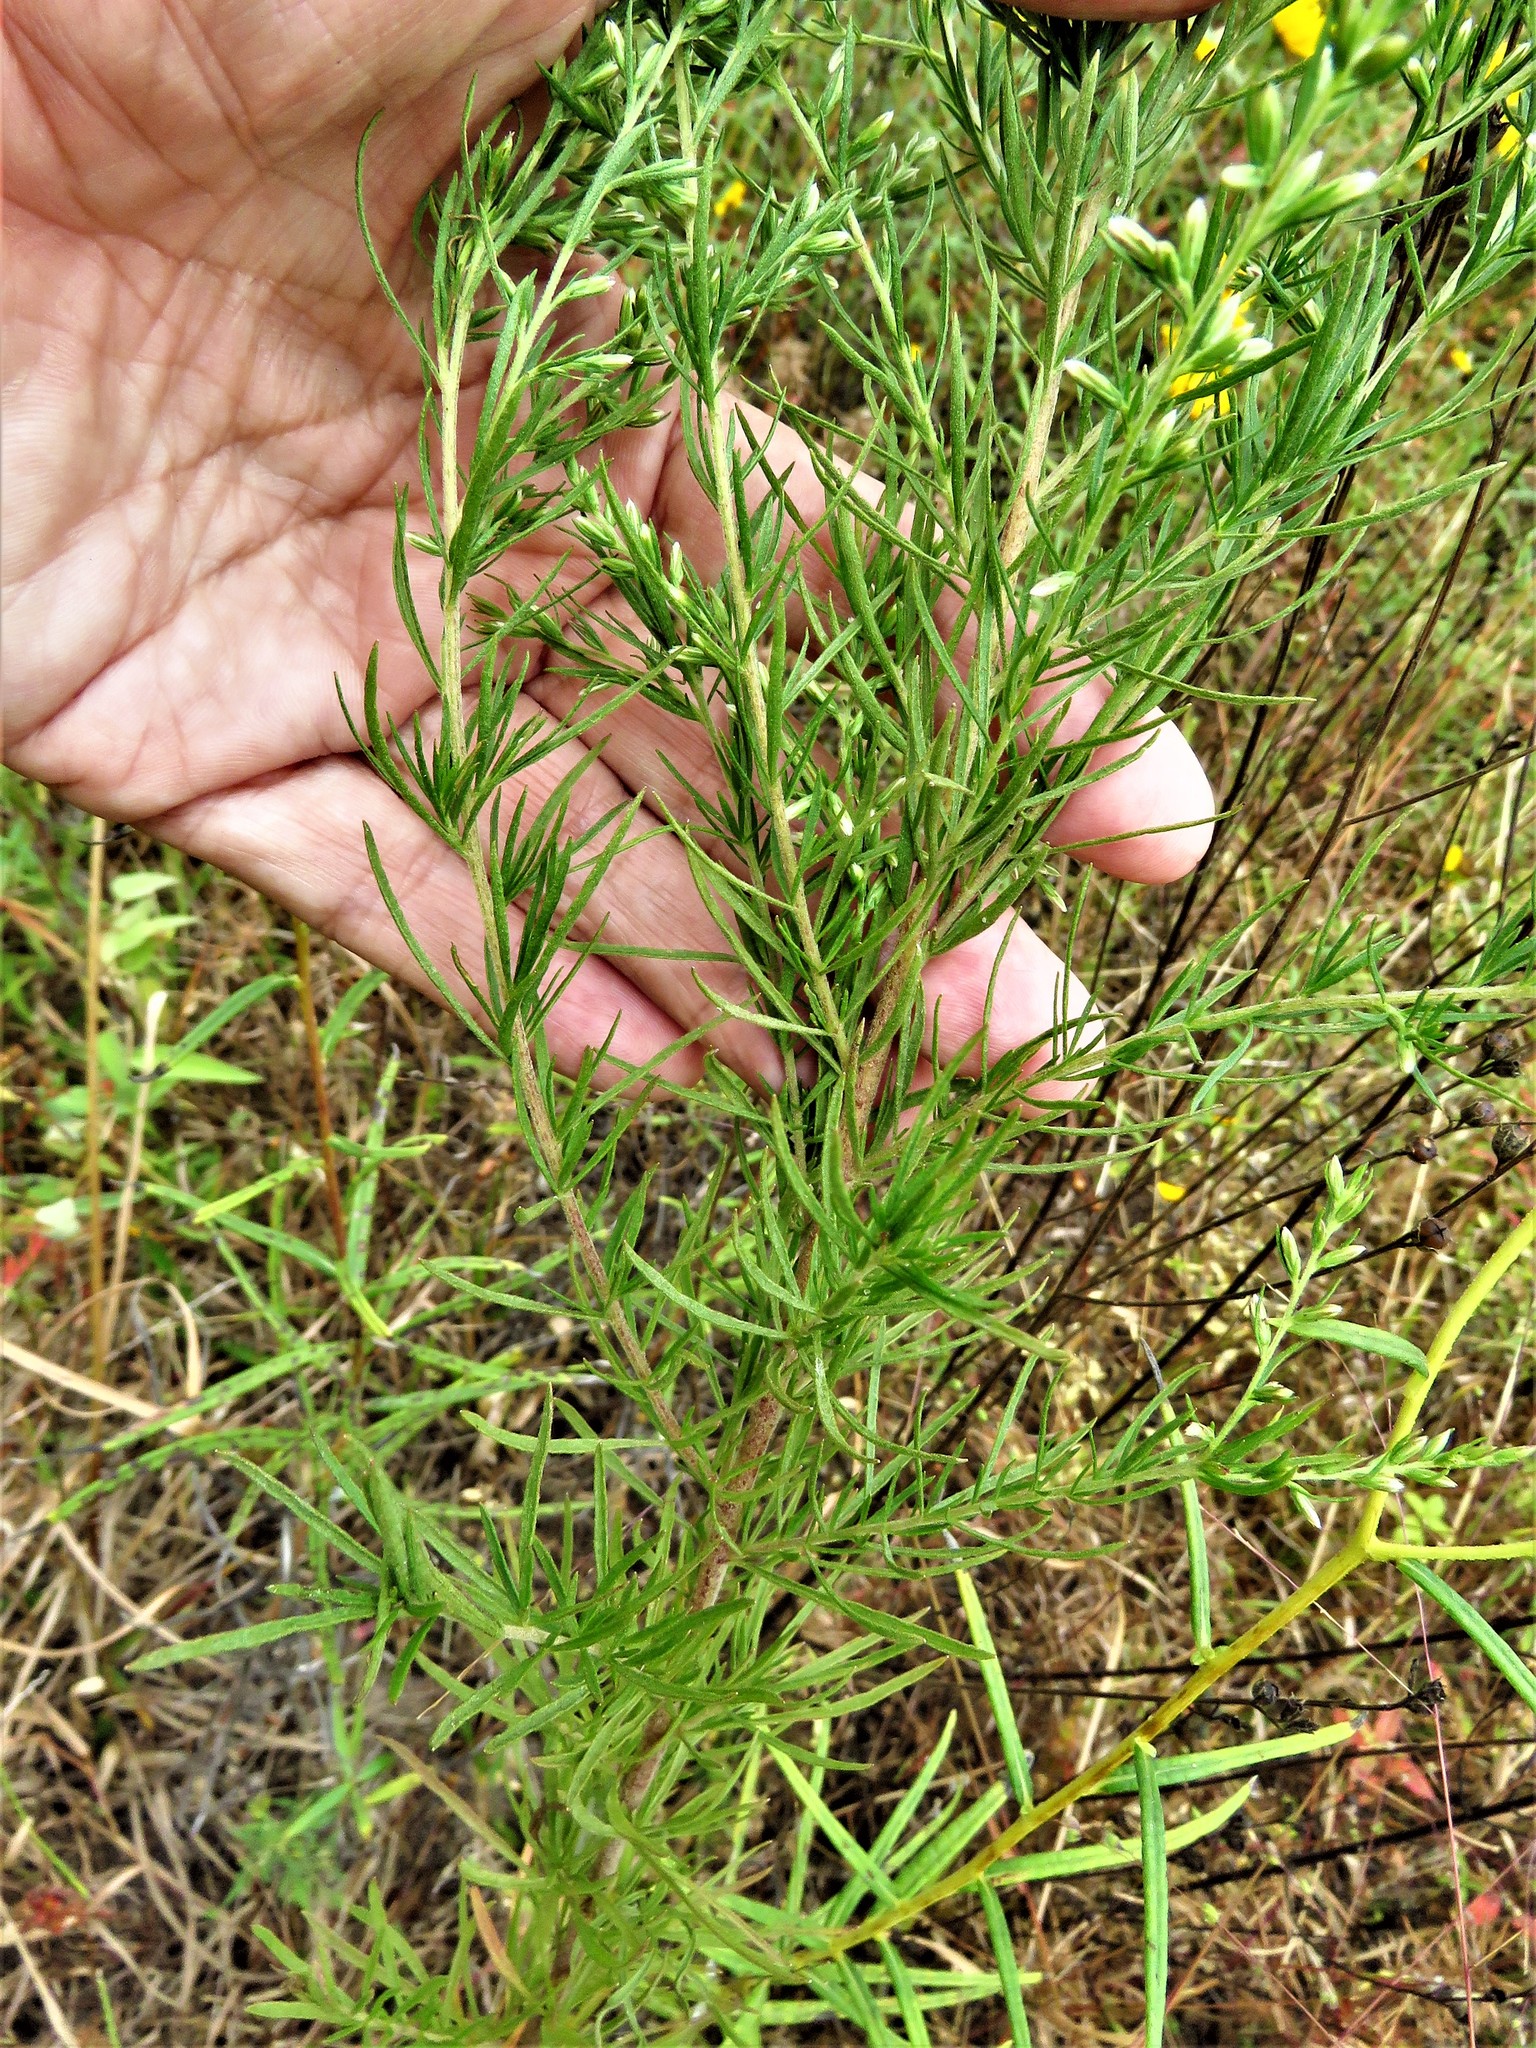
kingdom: Plantae
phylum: Tracheophyta
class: Magnoliopsida
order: Asterales
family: Asteraceae
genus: Eupatorium
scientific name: Eupatorium compositifolium
